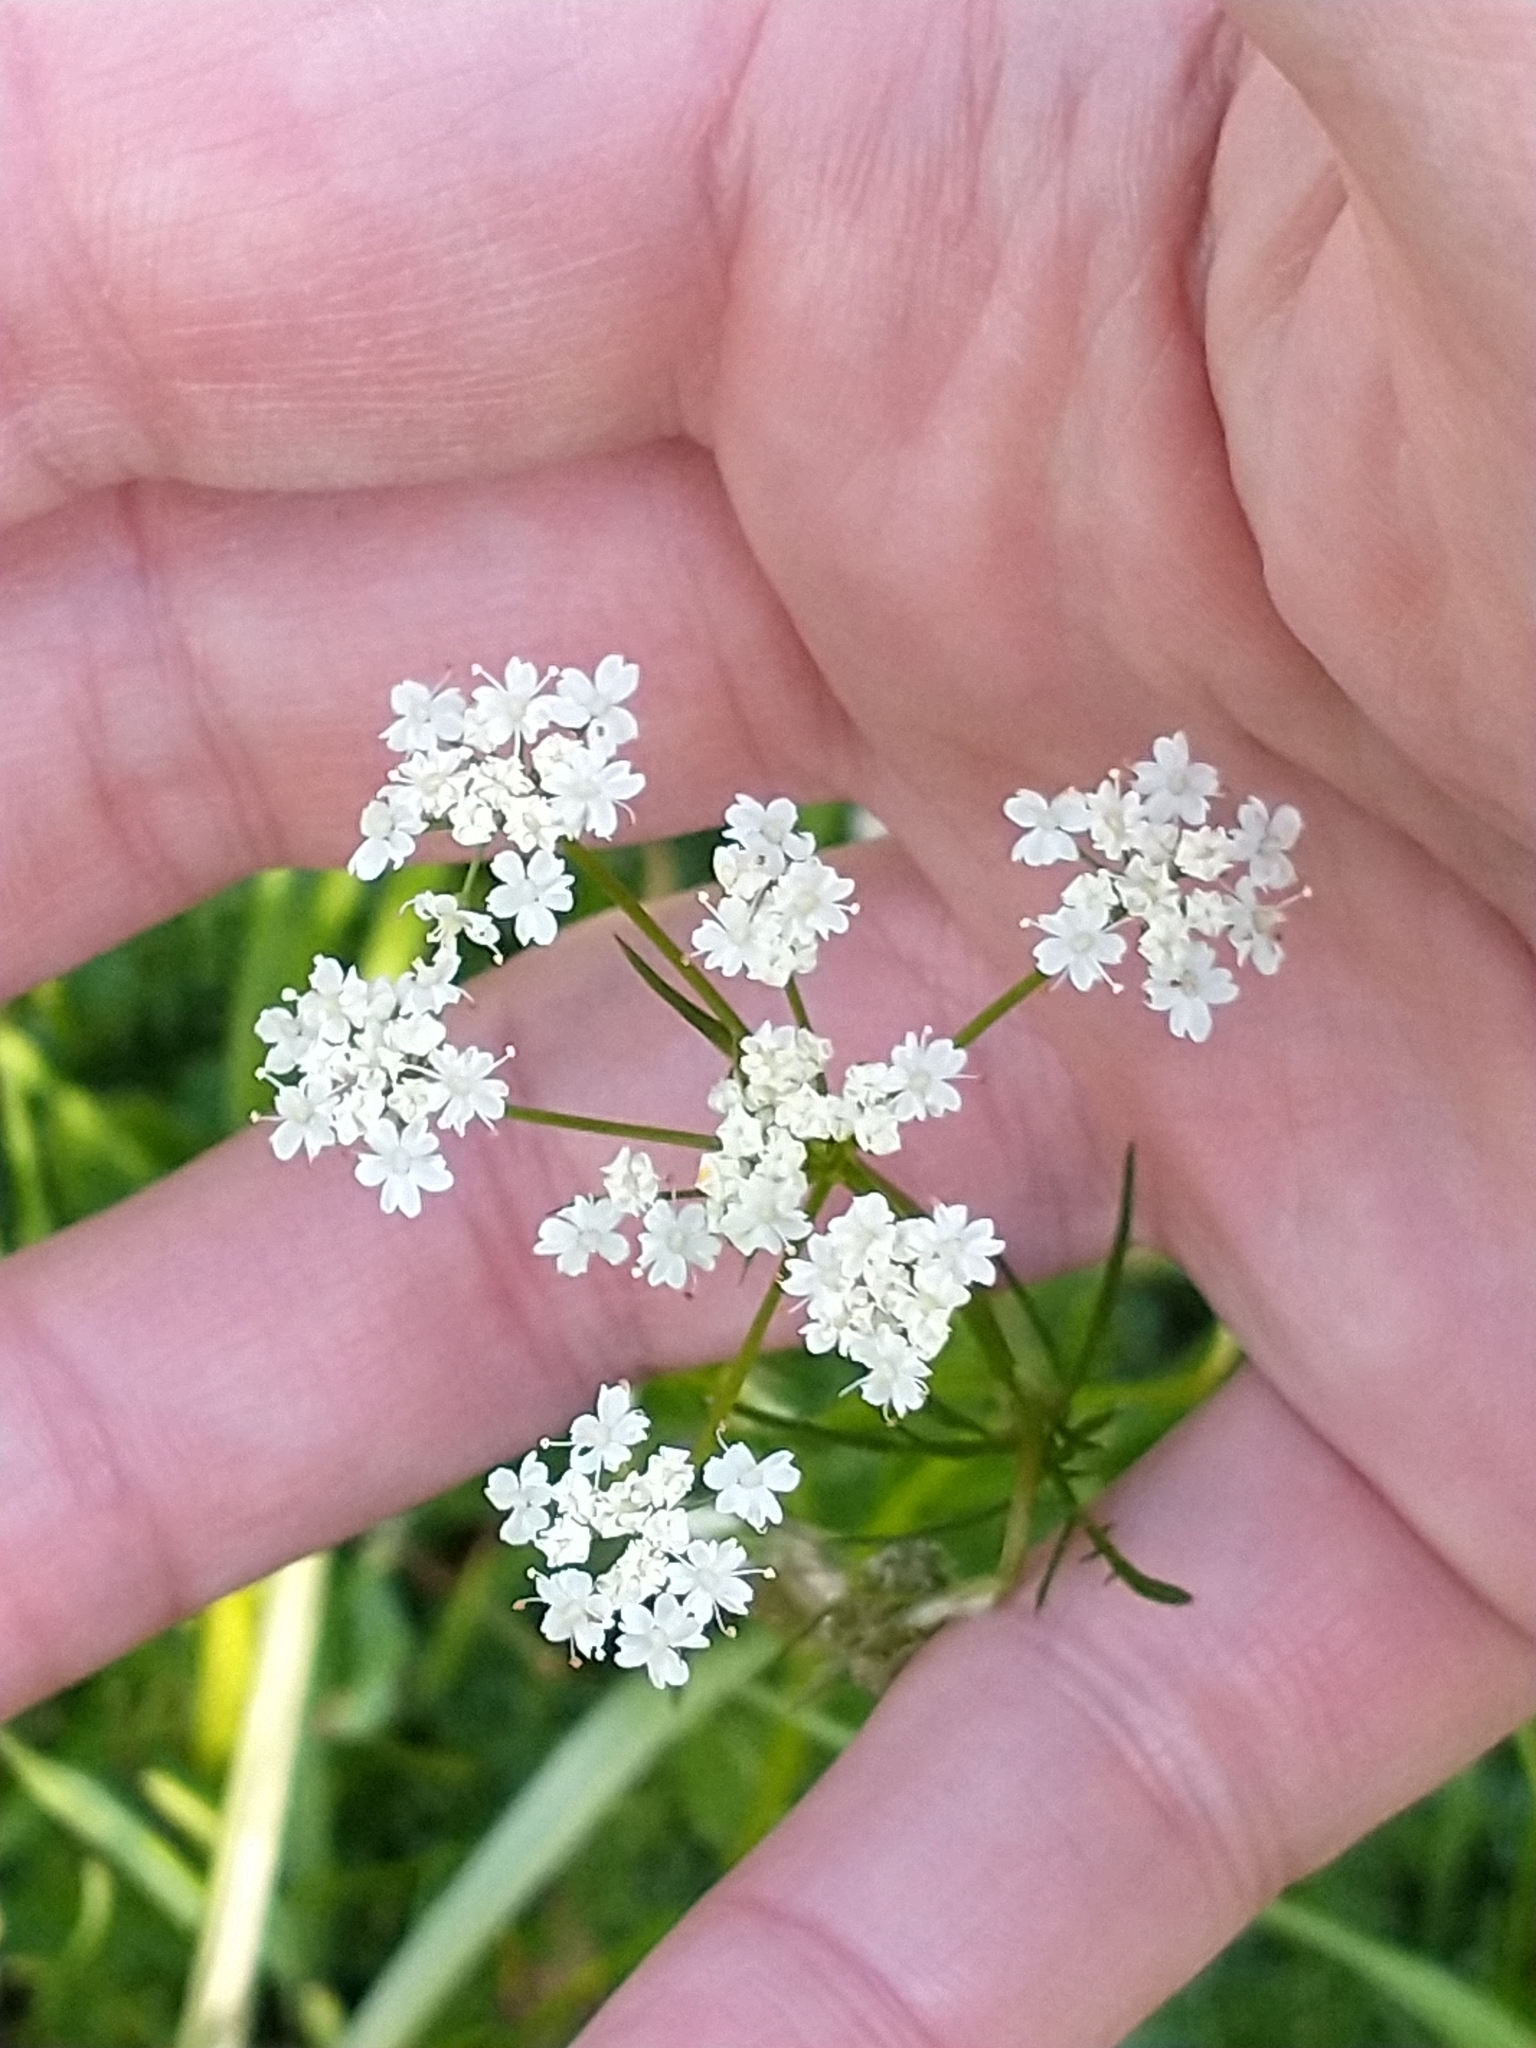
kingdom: Plantae
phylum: Tracheophyta
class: Magnoliopsida
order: Apiales
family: Apiaceae
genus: Conopodium
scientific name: Conopodium majus
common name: Pignut
